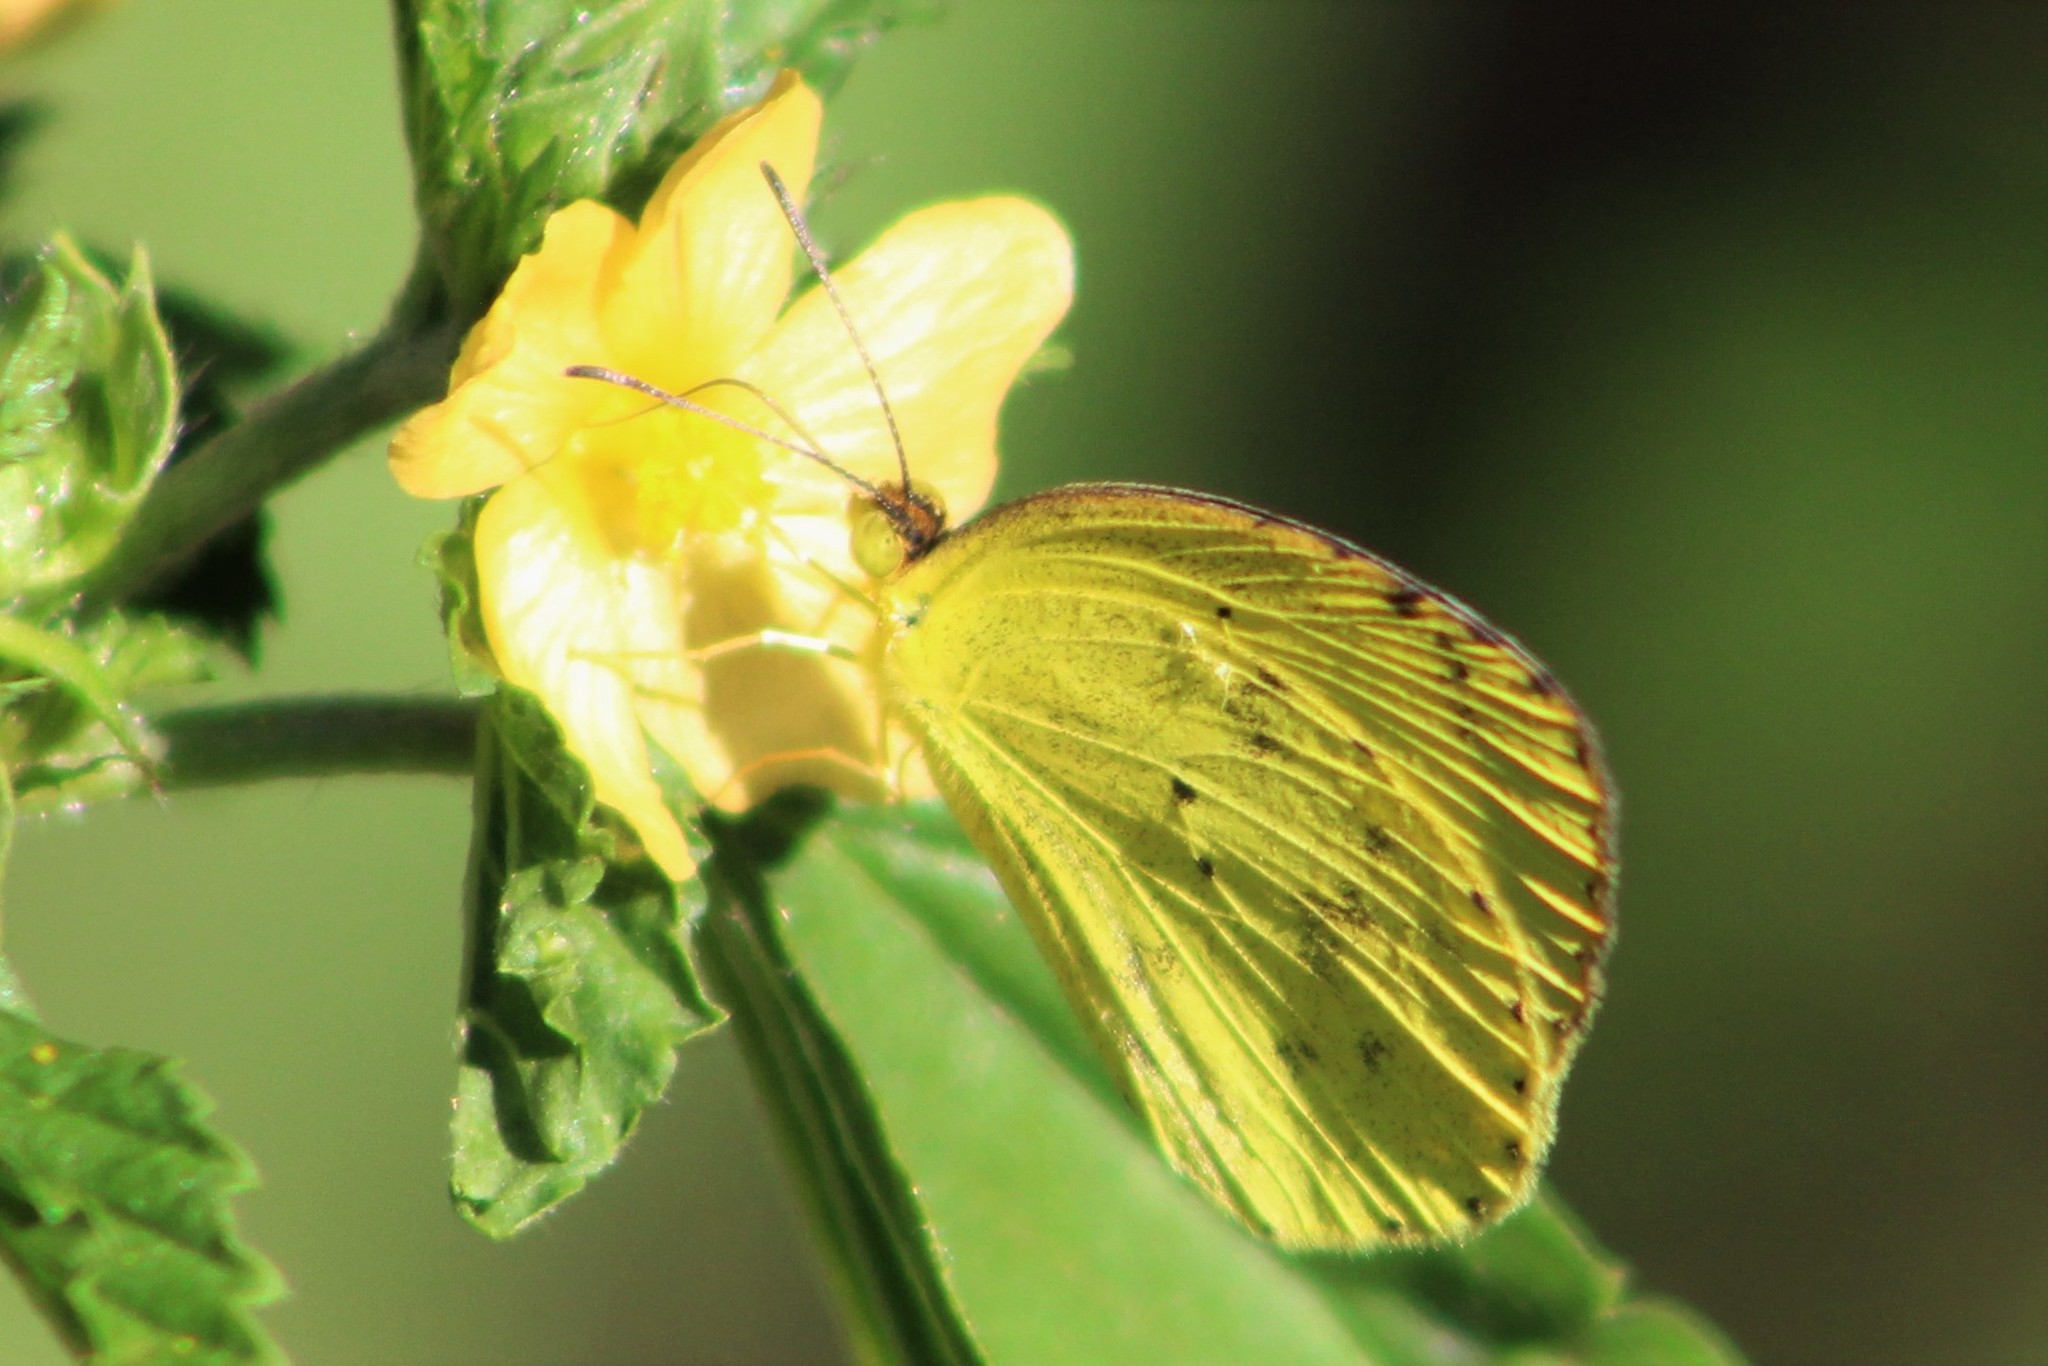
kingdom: Animalia
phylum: Arthropoda
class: Insecta
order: Lepidoptera
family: Pieridae
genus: Pyrisitia
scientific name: Pyrisitia nise
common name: Mimosa yellow
